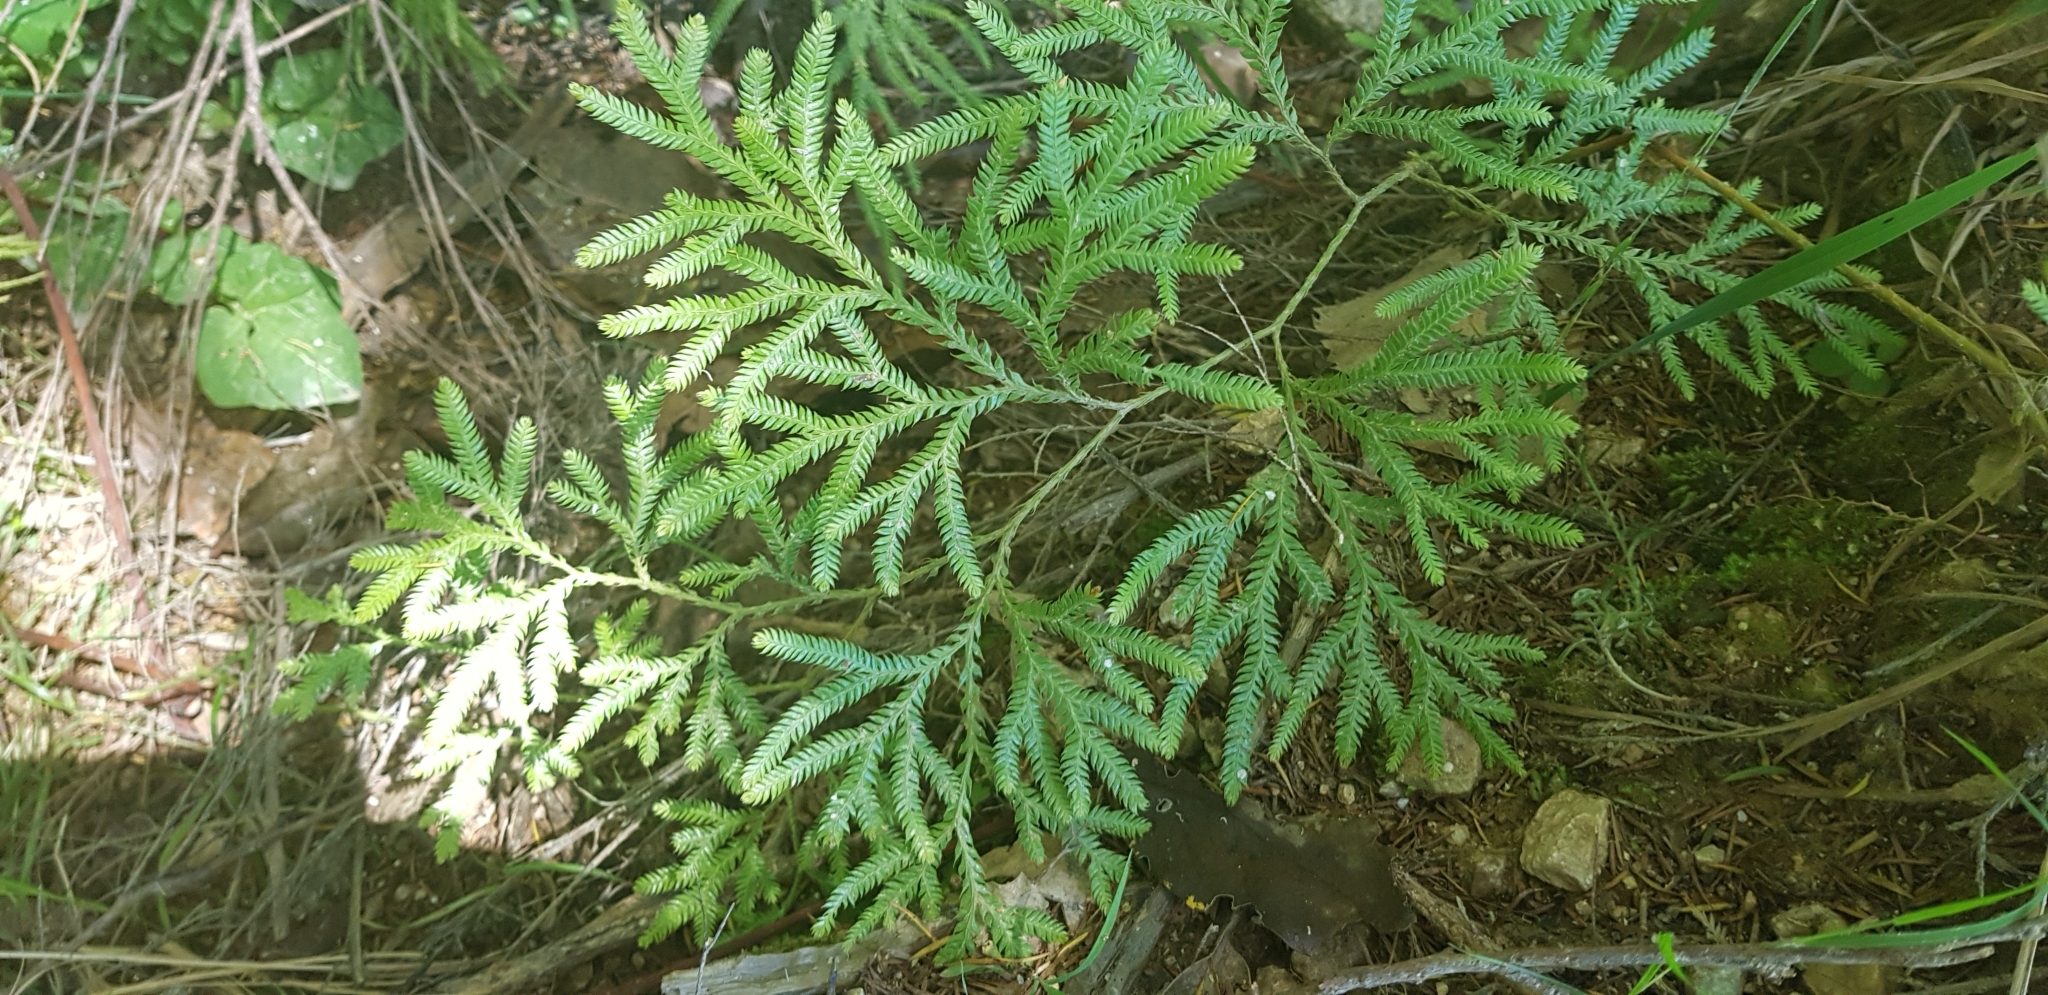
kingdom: Plantae
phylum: Tracheophyta
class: Lycopodiopsida
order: Lycopodiales
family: Lycopodiaceae
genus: Lycopodium
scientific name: Lycopodium volubile
